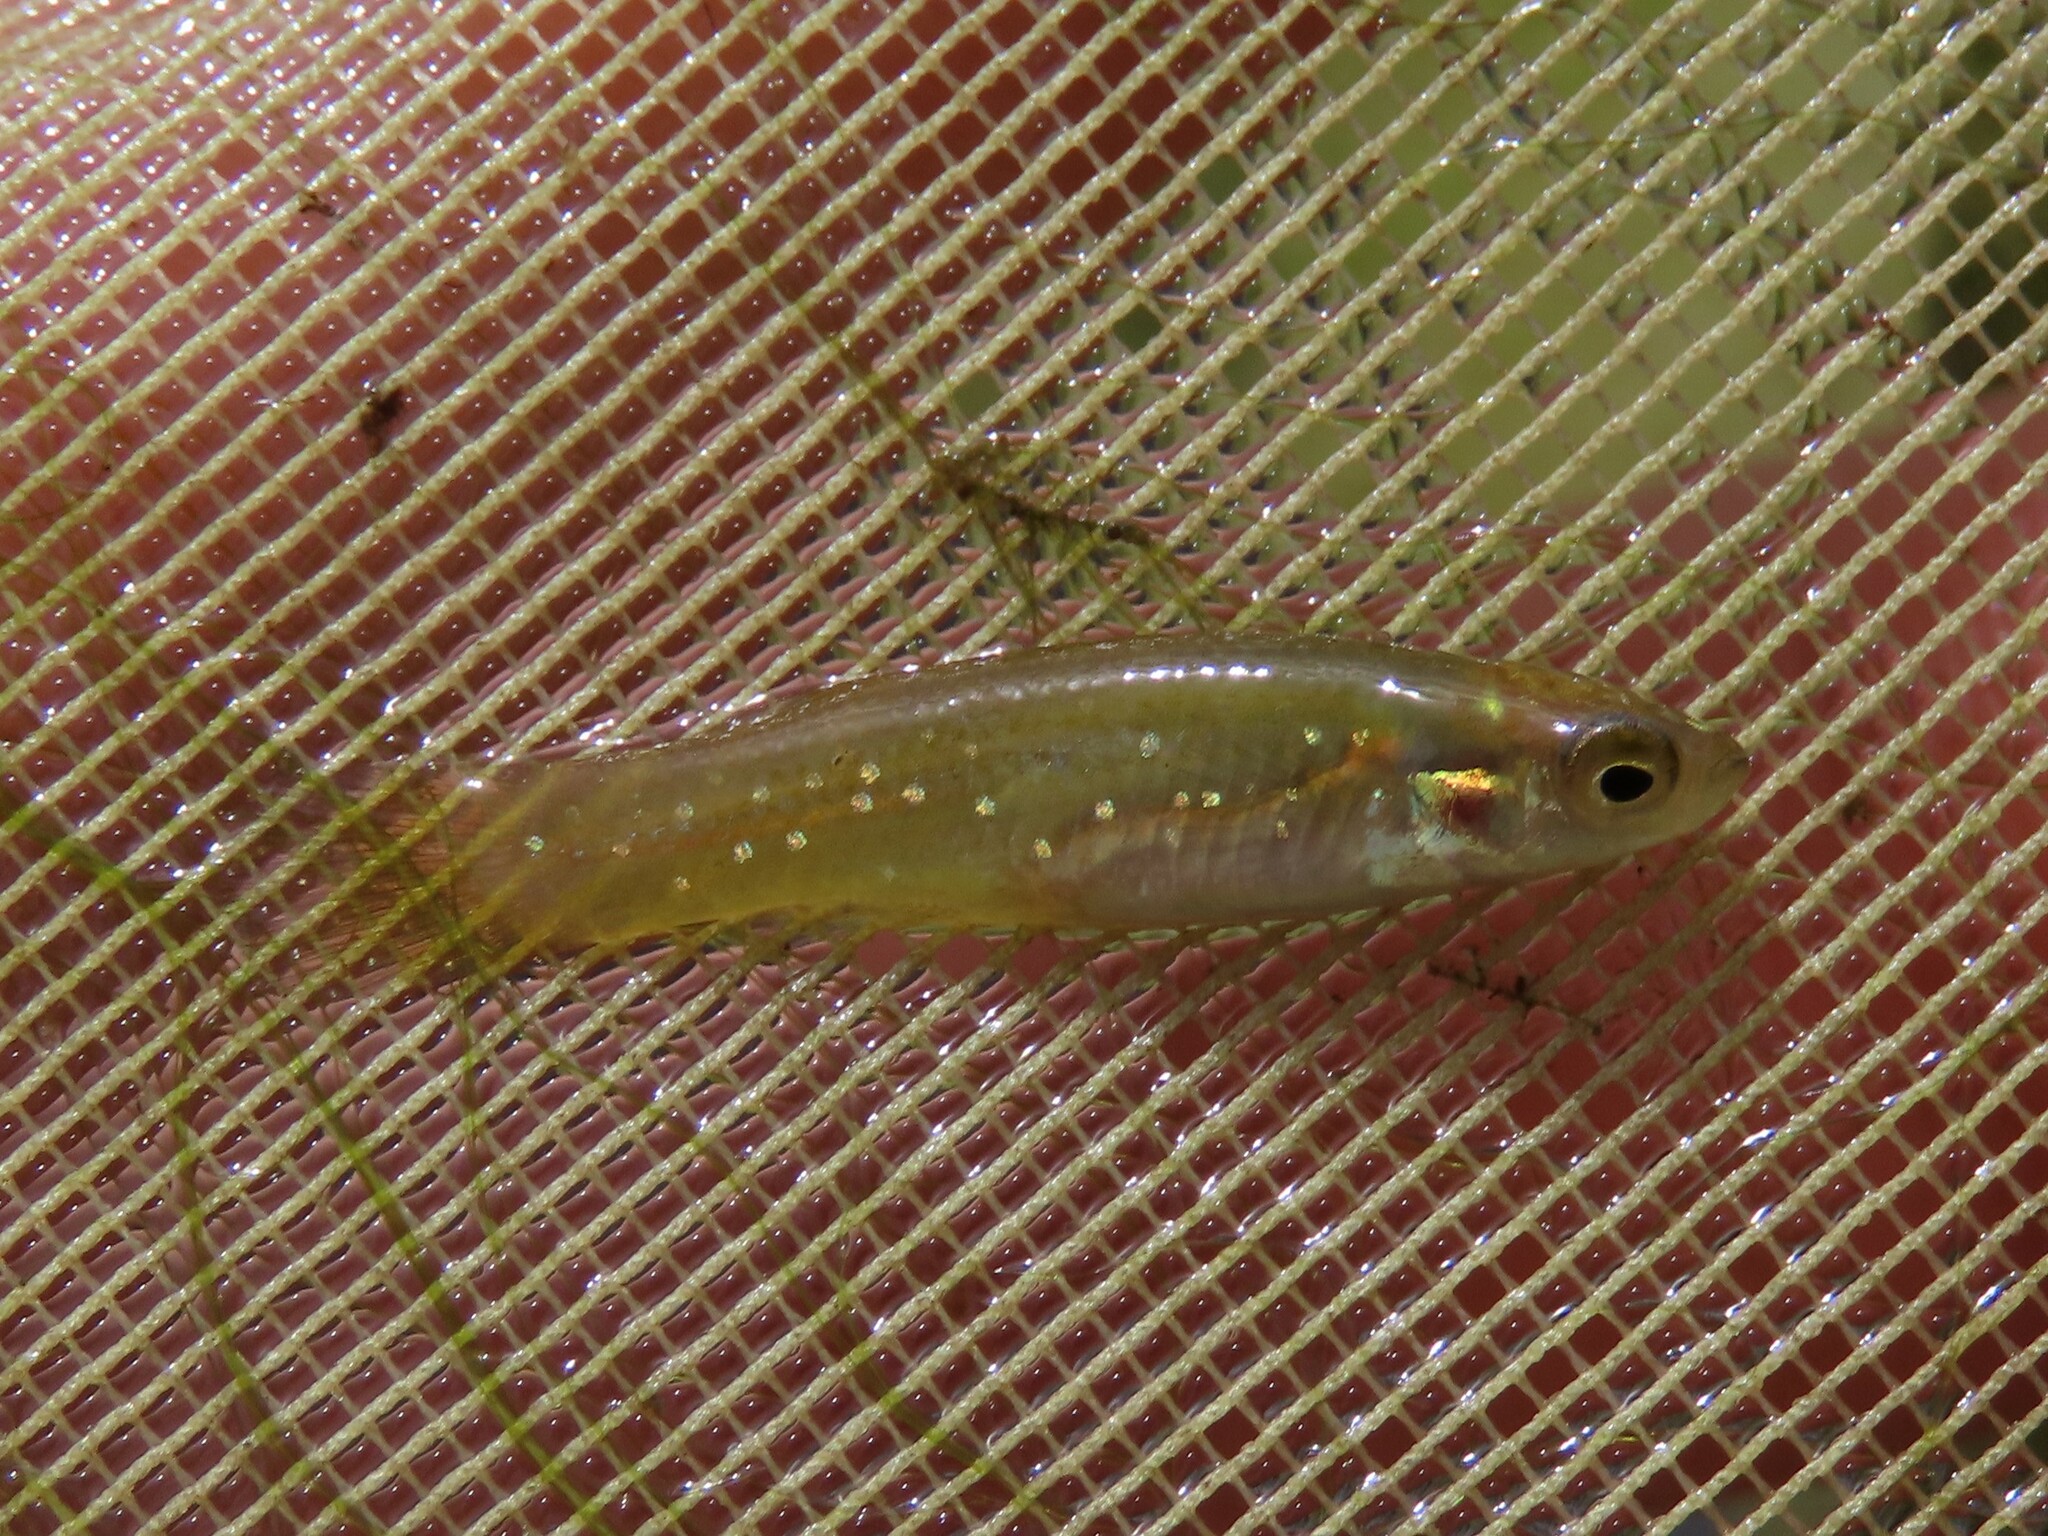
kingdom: Animalia
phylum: Chordata
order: Cyprinodontiformes
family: Fundulidae
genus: Fundulus
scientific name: Fundulus chrysotus
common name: Golden topminnow
